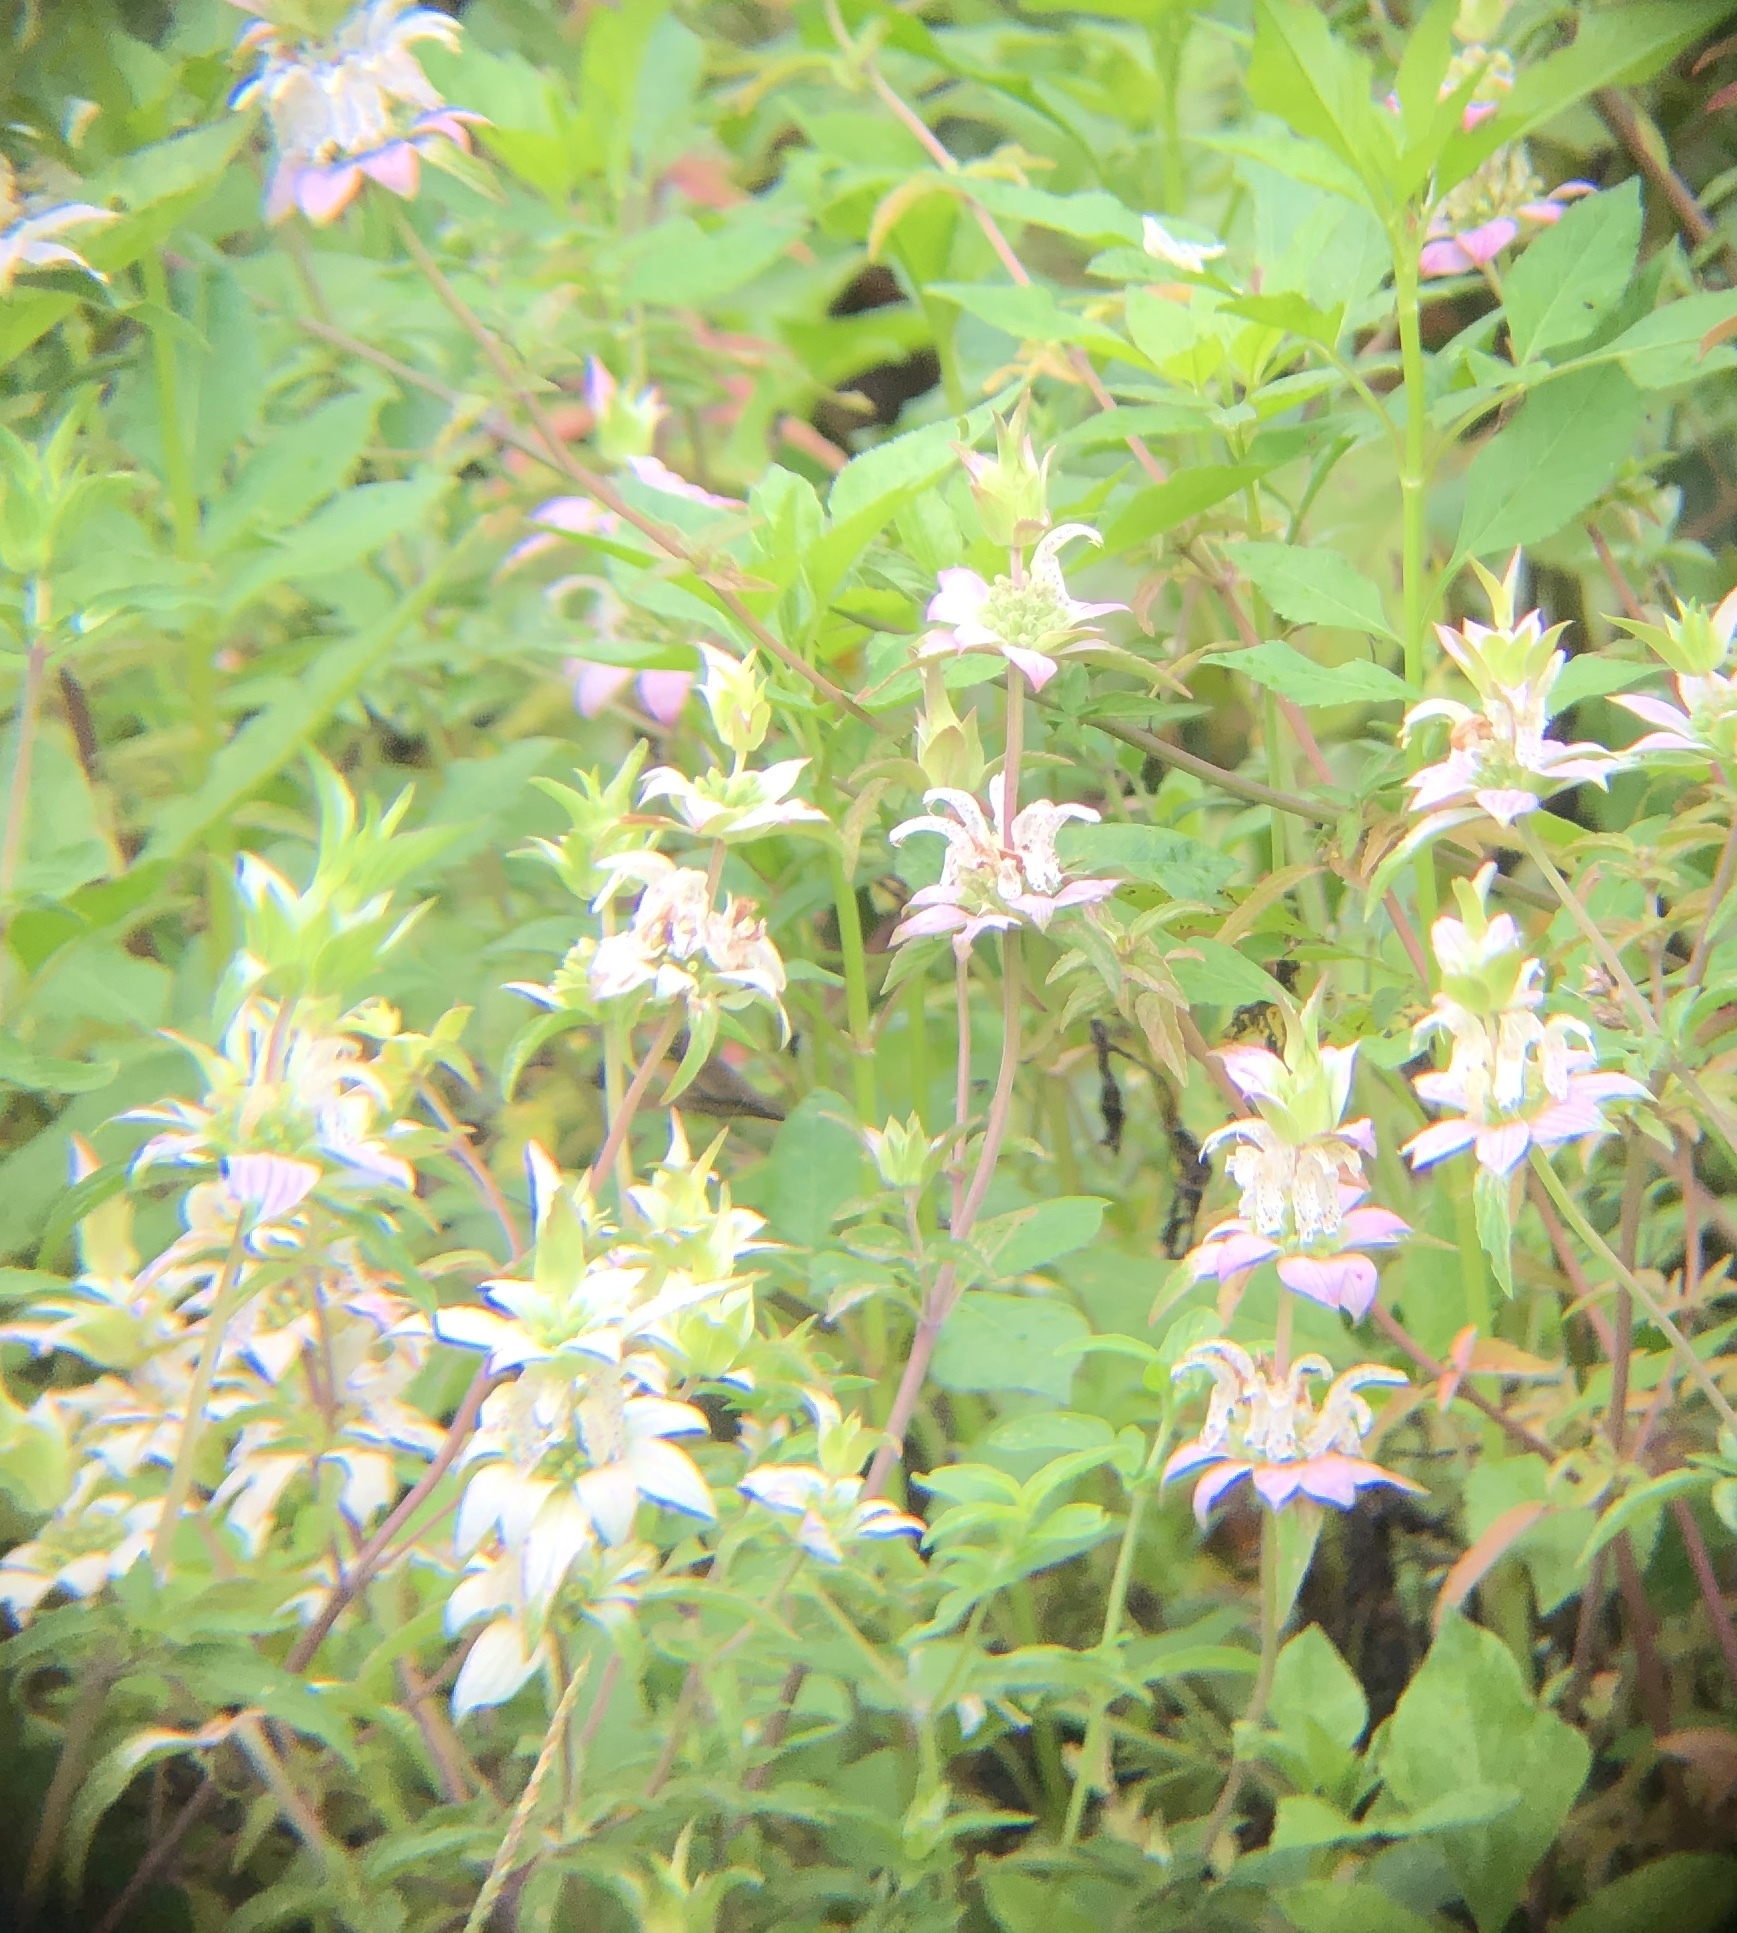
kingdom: Plantae
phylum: Tracheophyta
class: Magnoliopsida
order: Lamiales
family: Lamiaceae
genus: Monarda
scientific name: Monarda punctata
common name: Dotted monarda
